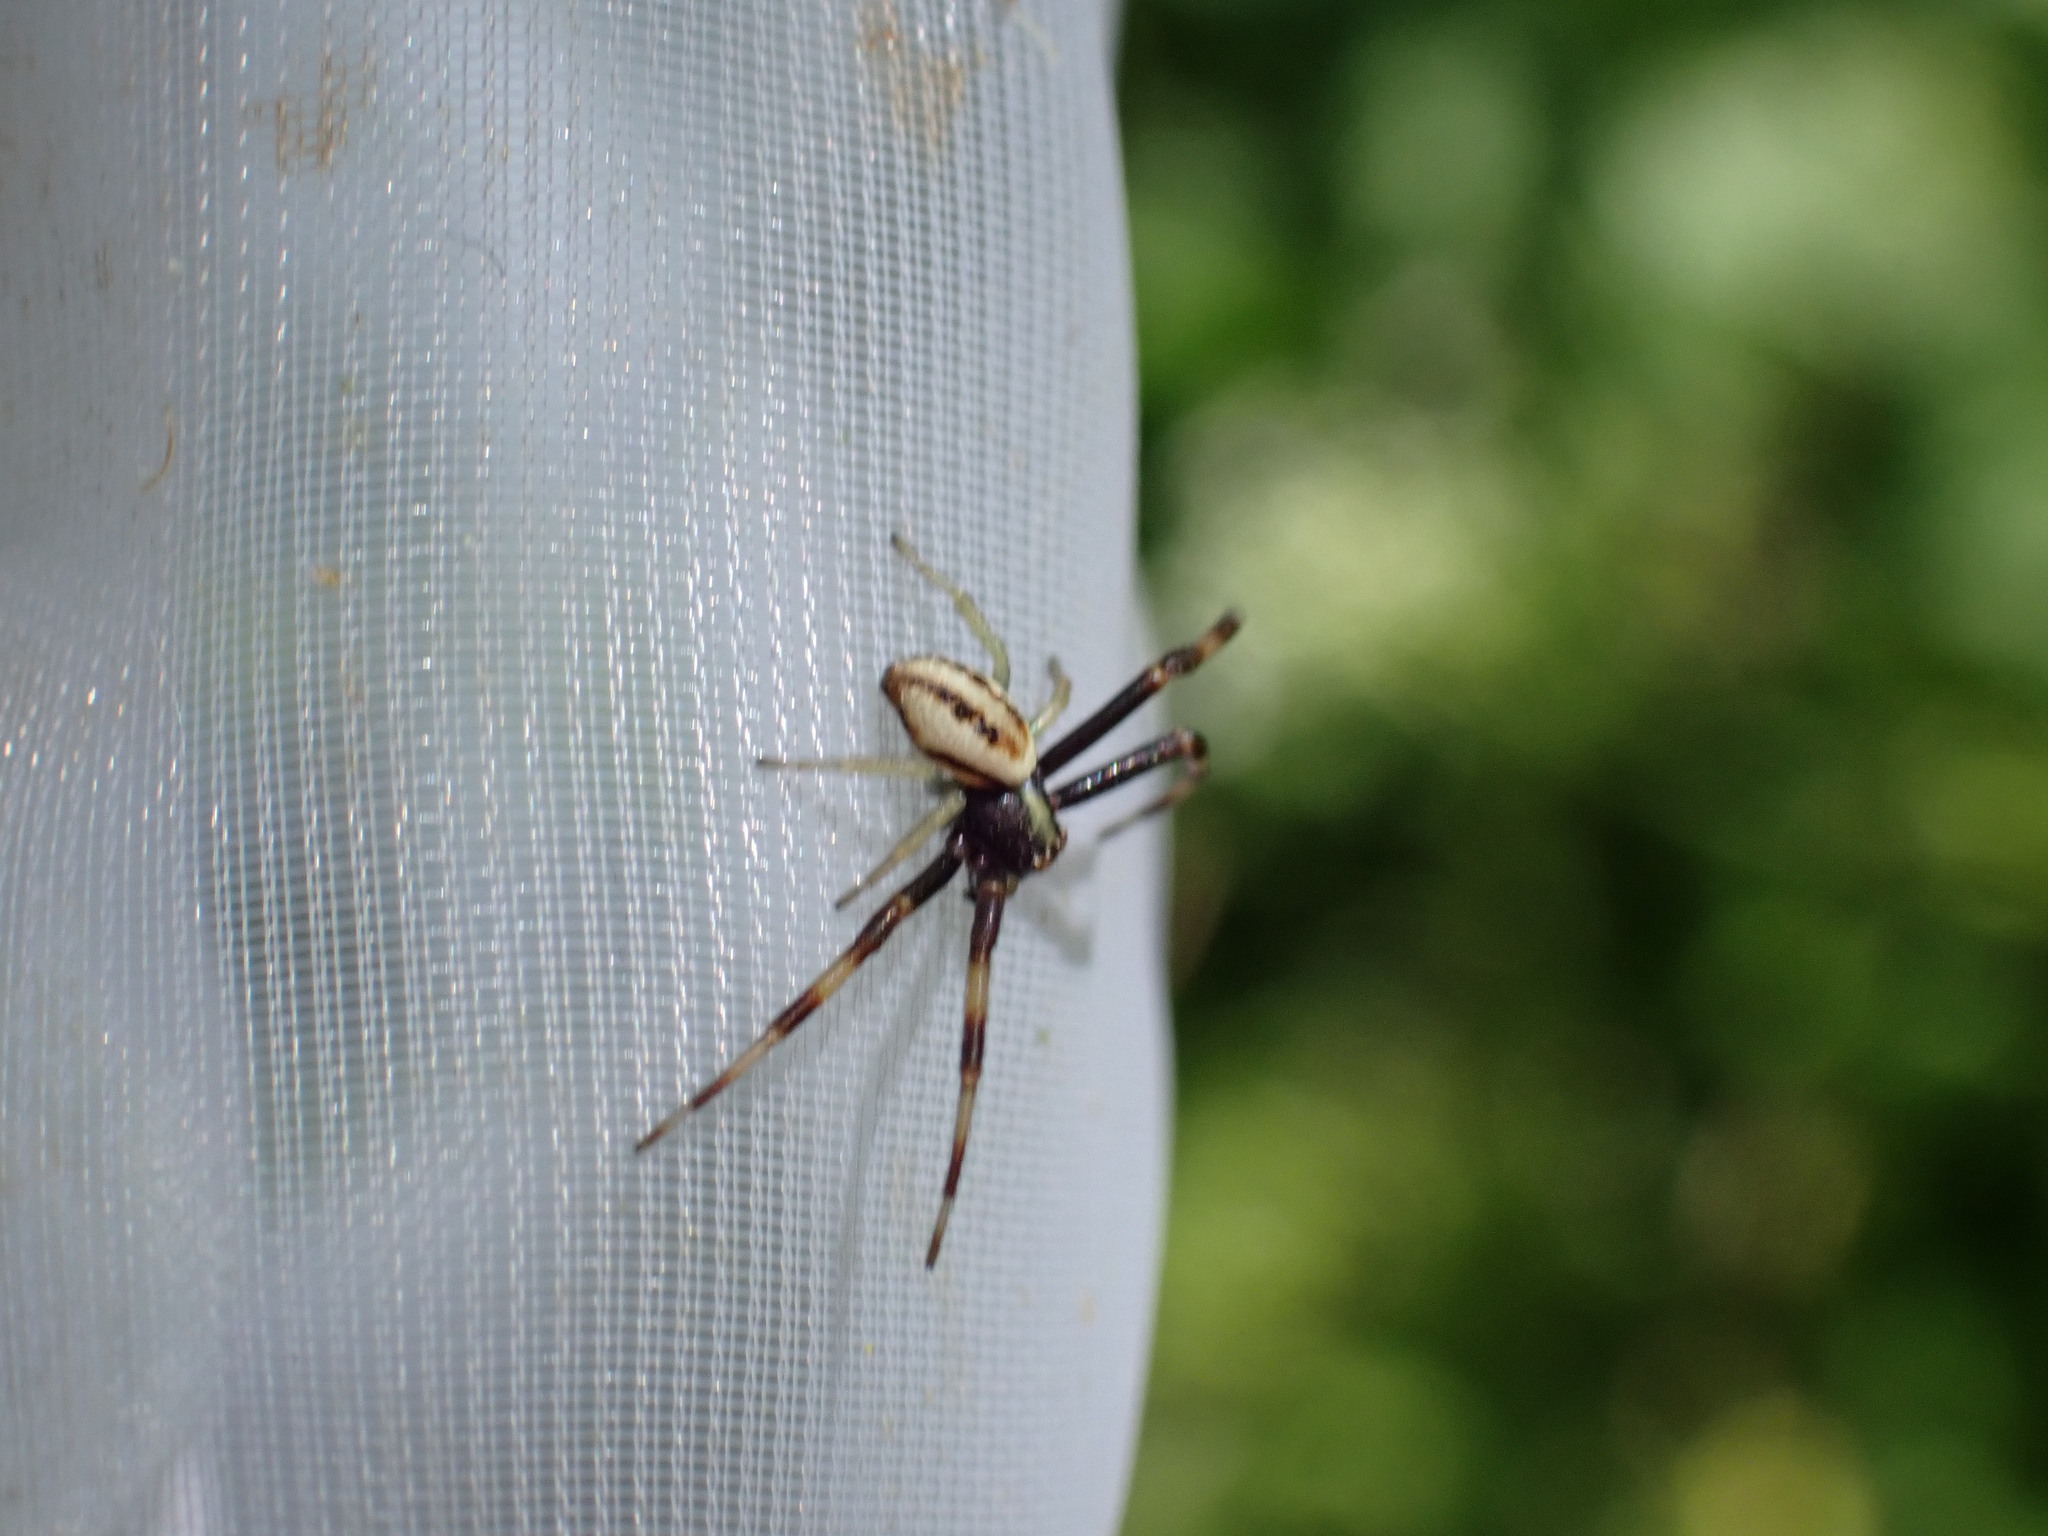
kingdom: Animalia
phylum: Arthropoda
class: Arachnida
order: Araneae
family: Thomisidae
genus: Misumena
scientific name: Misumena vatia
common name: Goldenrod crab spider
